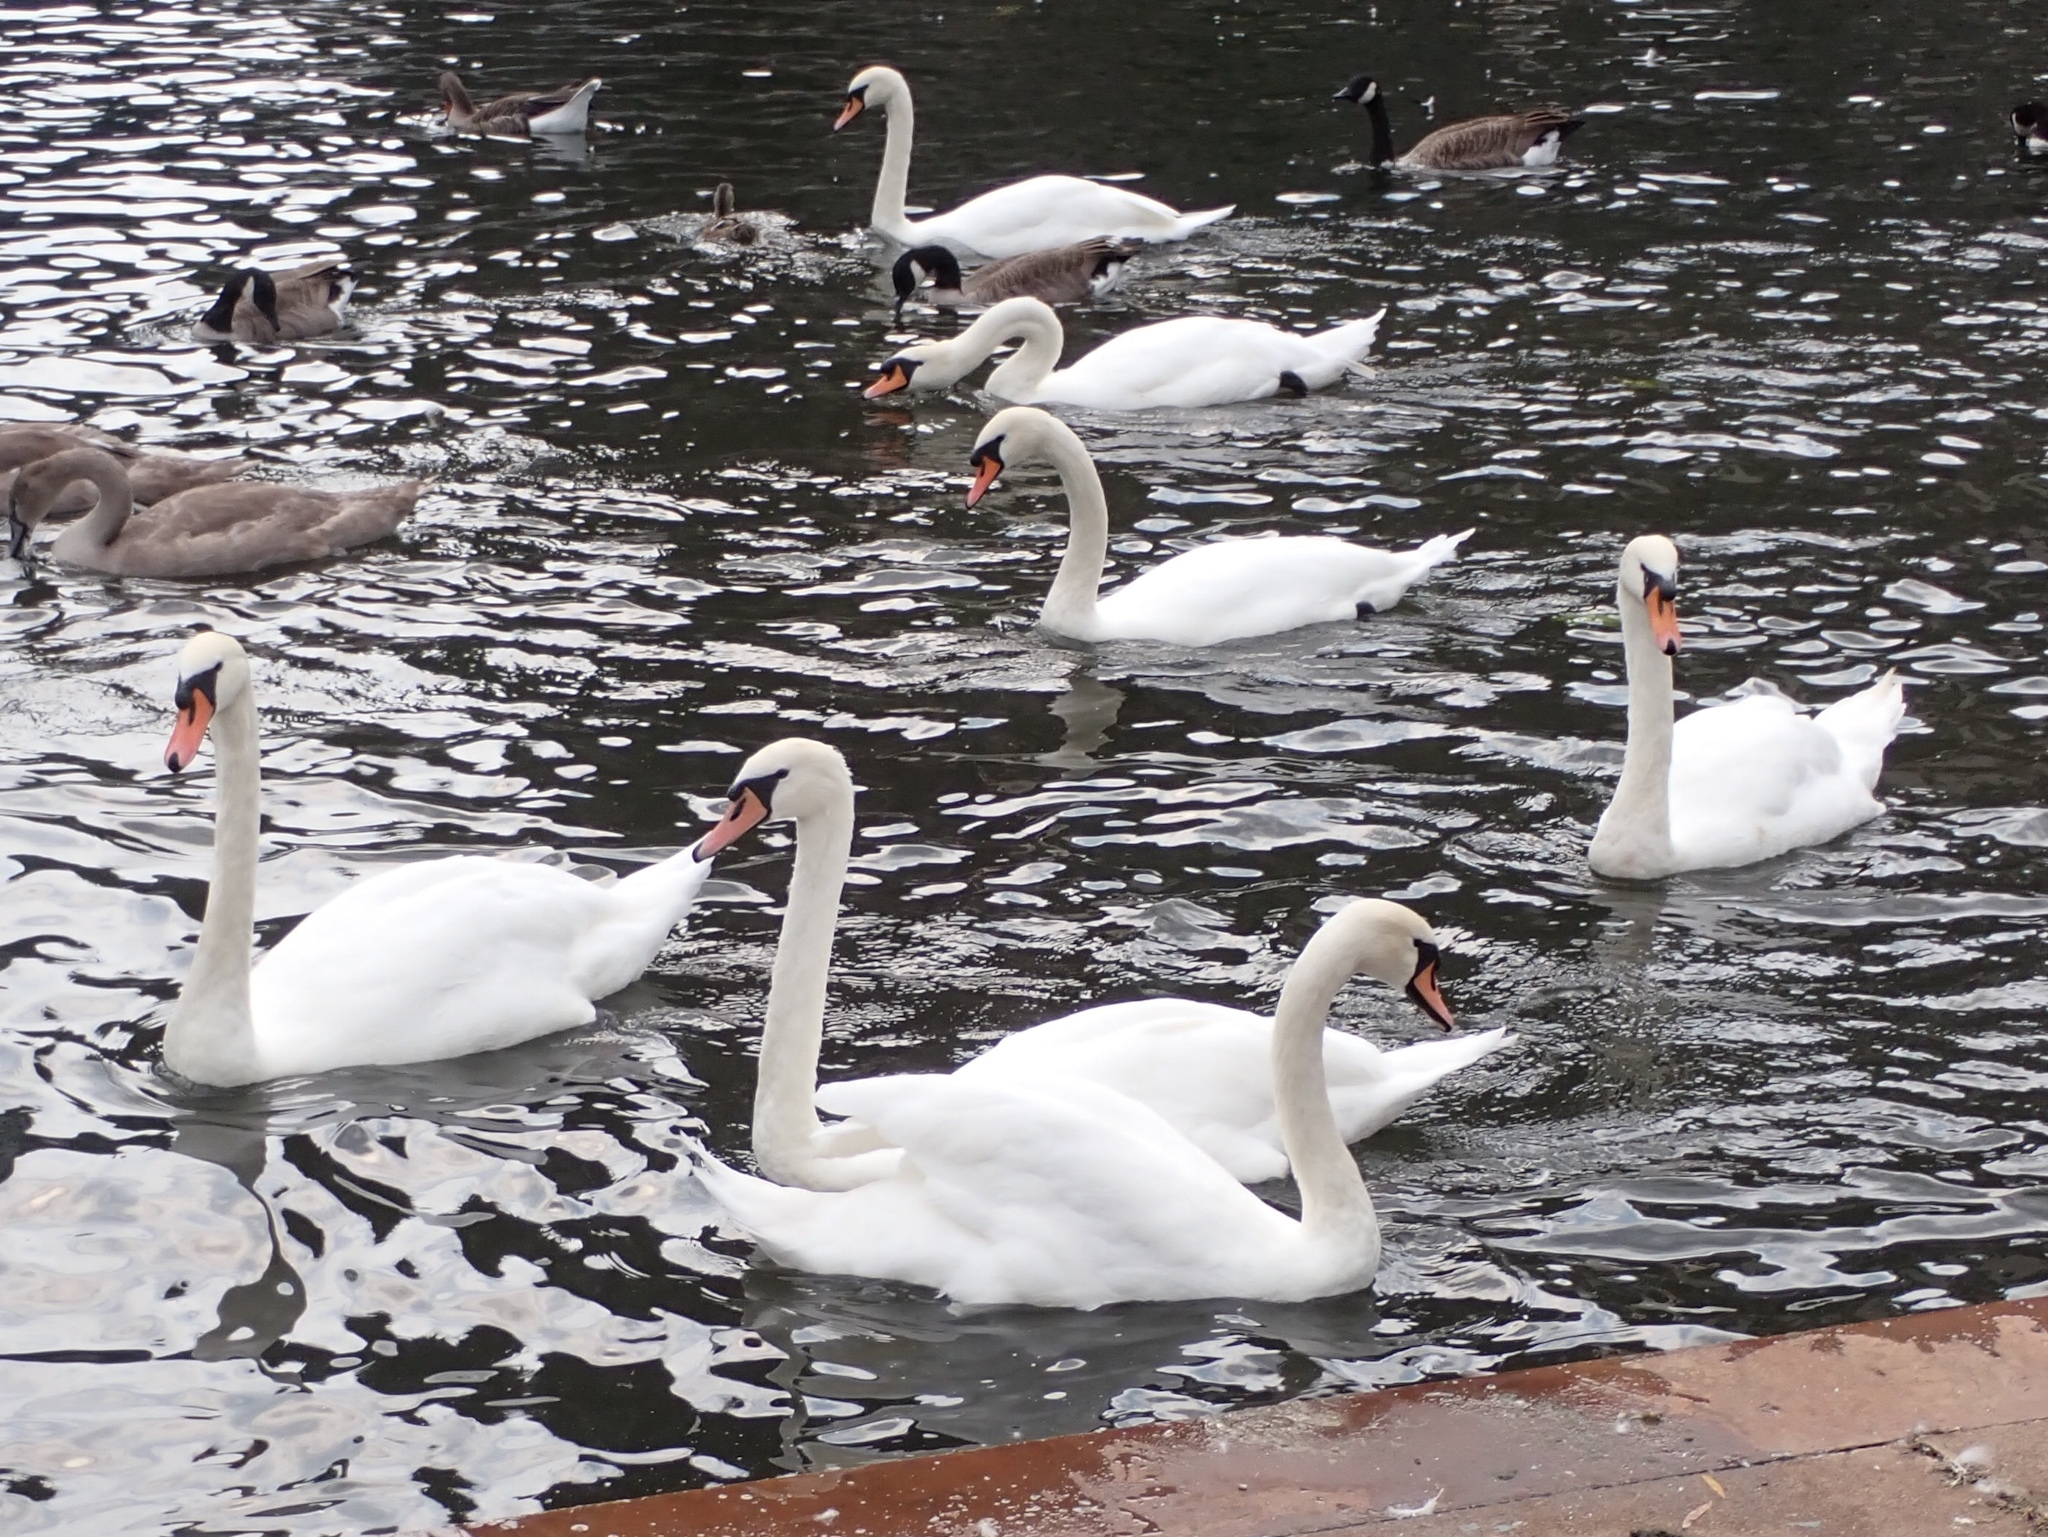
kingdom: Animalia
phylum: Chordata
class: Aves
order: Anseriformes
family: Anatidae
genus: Cygnus
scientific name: Cygnus olor
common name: Mute swan
